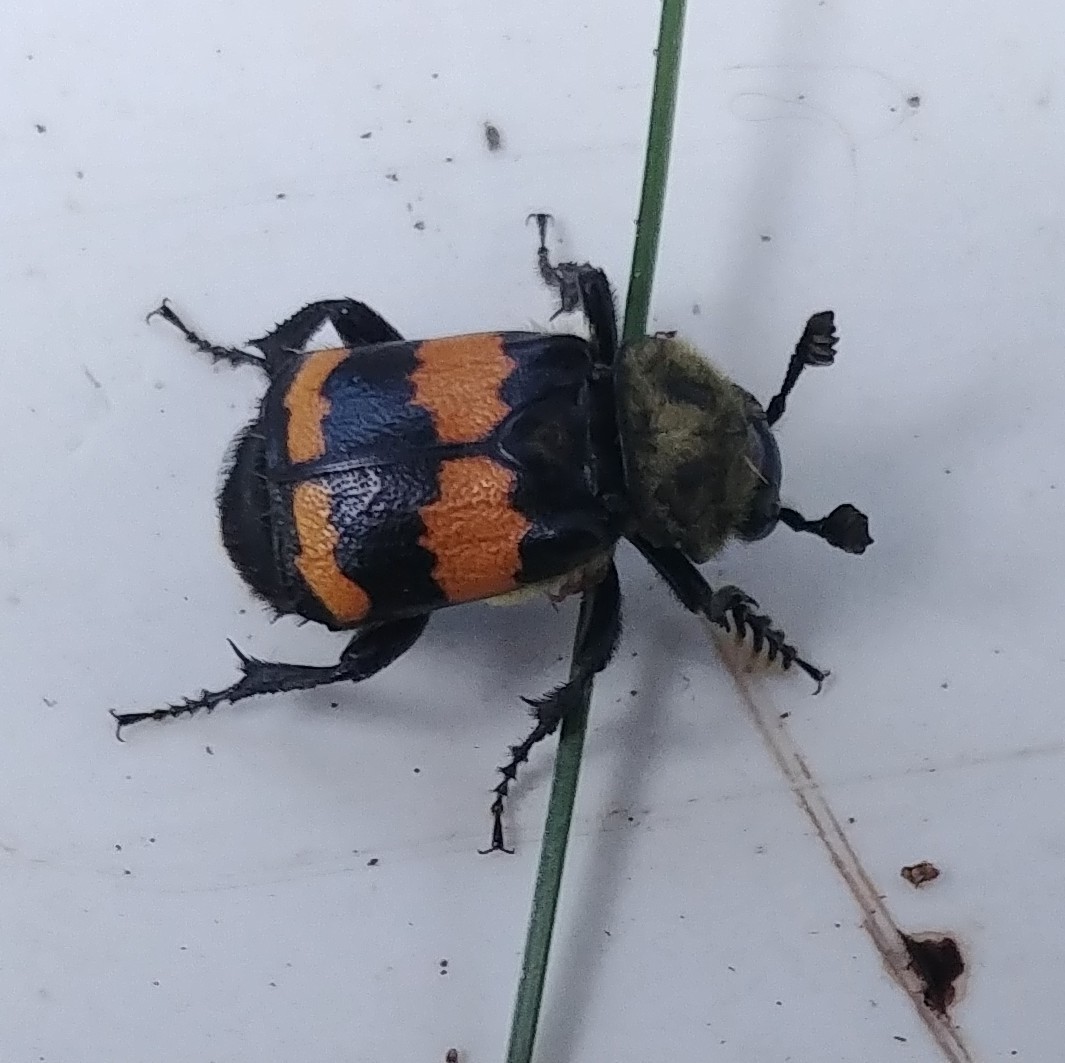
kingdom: Animalia
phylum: Arthropoda
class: Insecta
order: Coleoptera
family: Staphylinidae
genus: Nicrophorus
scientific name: Nicrophorus tomentosus
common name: Tomentose burying beetle
